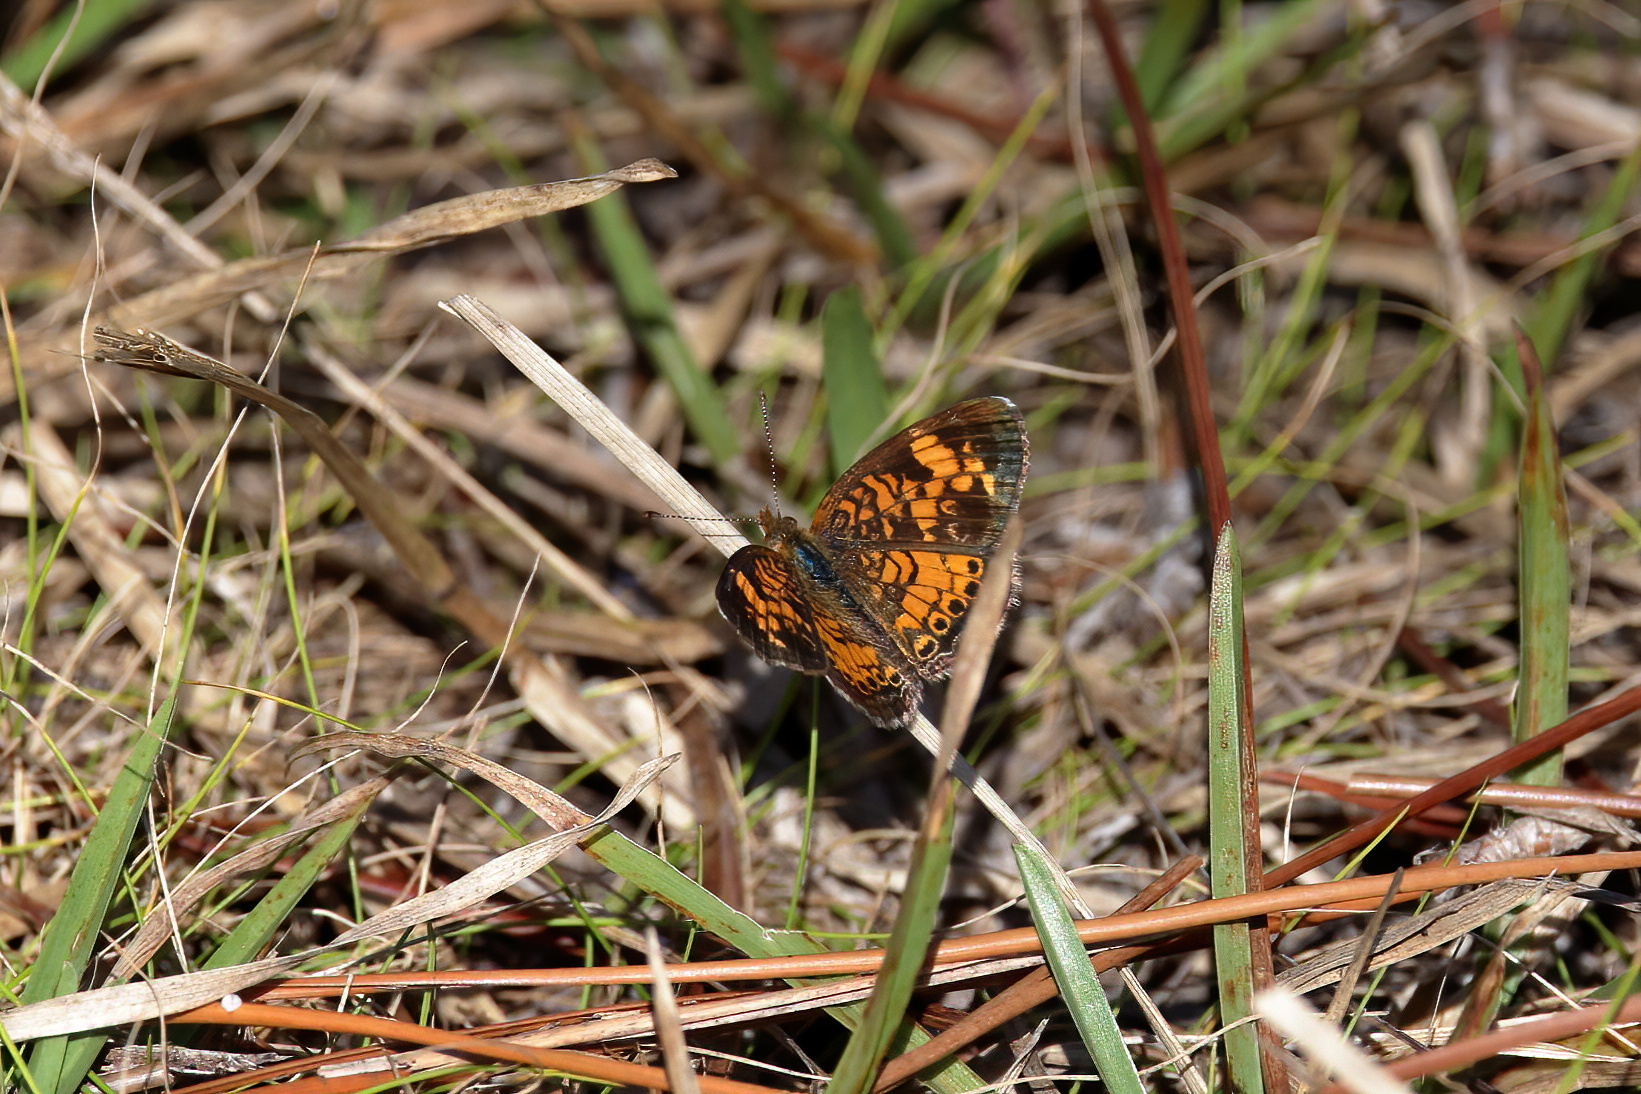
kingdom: Animalia
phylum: Arthropoda
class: Insecta
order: Lepidoptera
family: Nymphalidae
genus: Phyciodes
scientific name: Phyciodes tharos
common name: Pearl crescent
